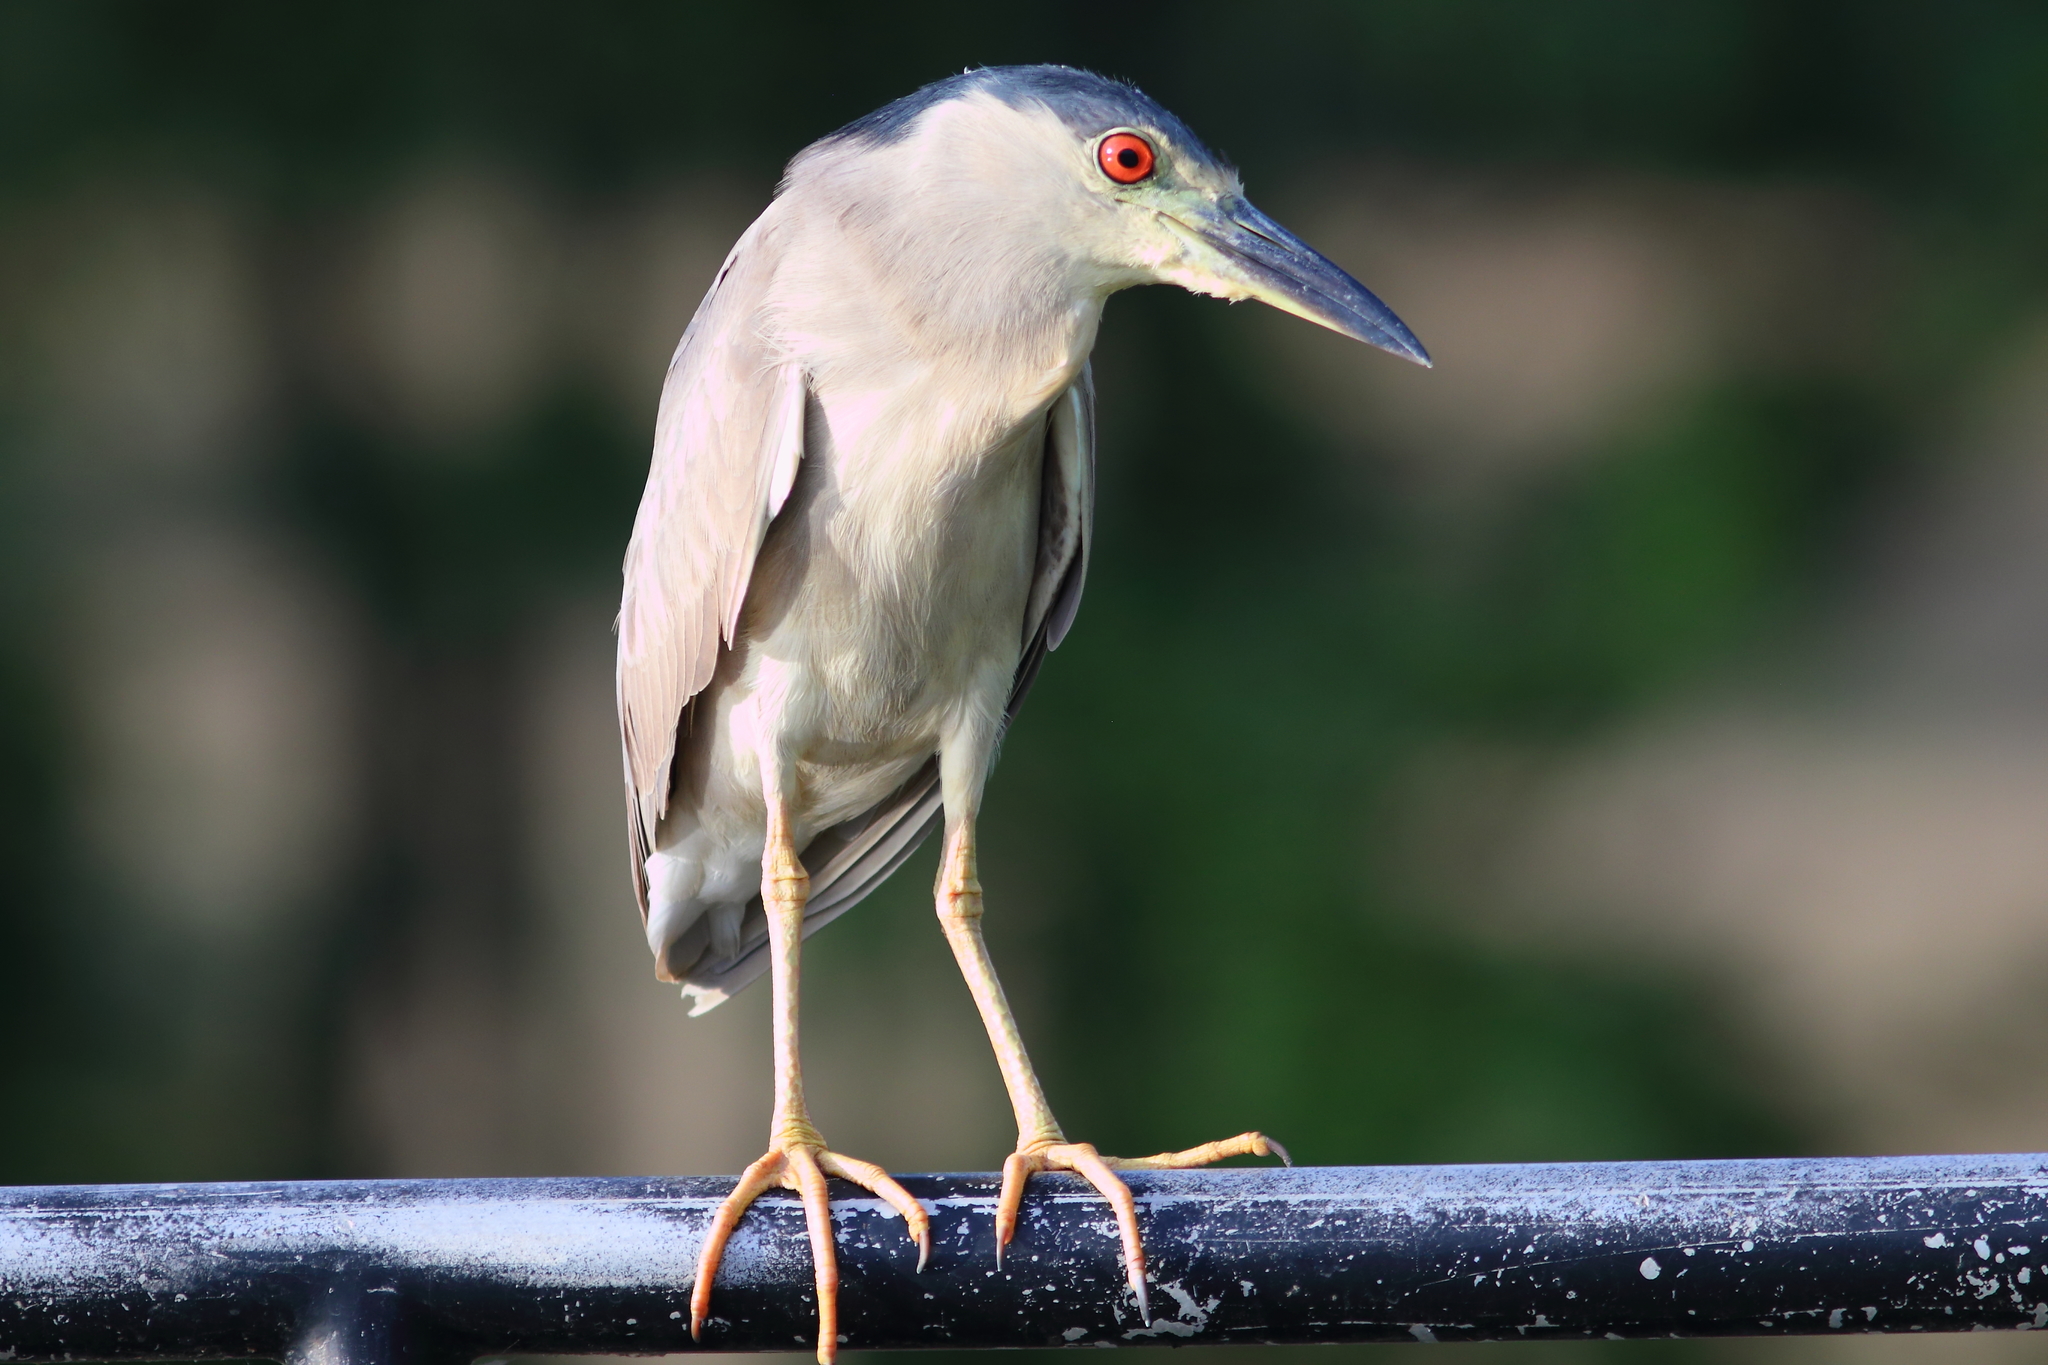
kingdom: Animalia
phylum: Chordata
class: Aves
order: Pelecaniformes
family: Ardeidae
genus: Nycticorax
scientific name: Nycticorax nycticorax
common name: Black-crowned night heron
